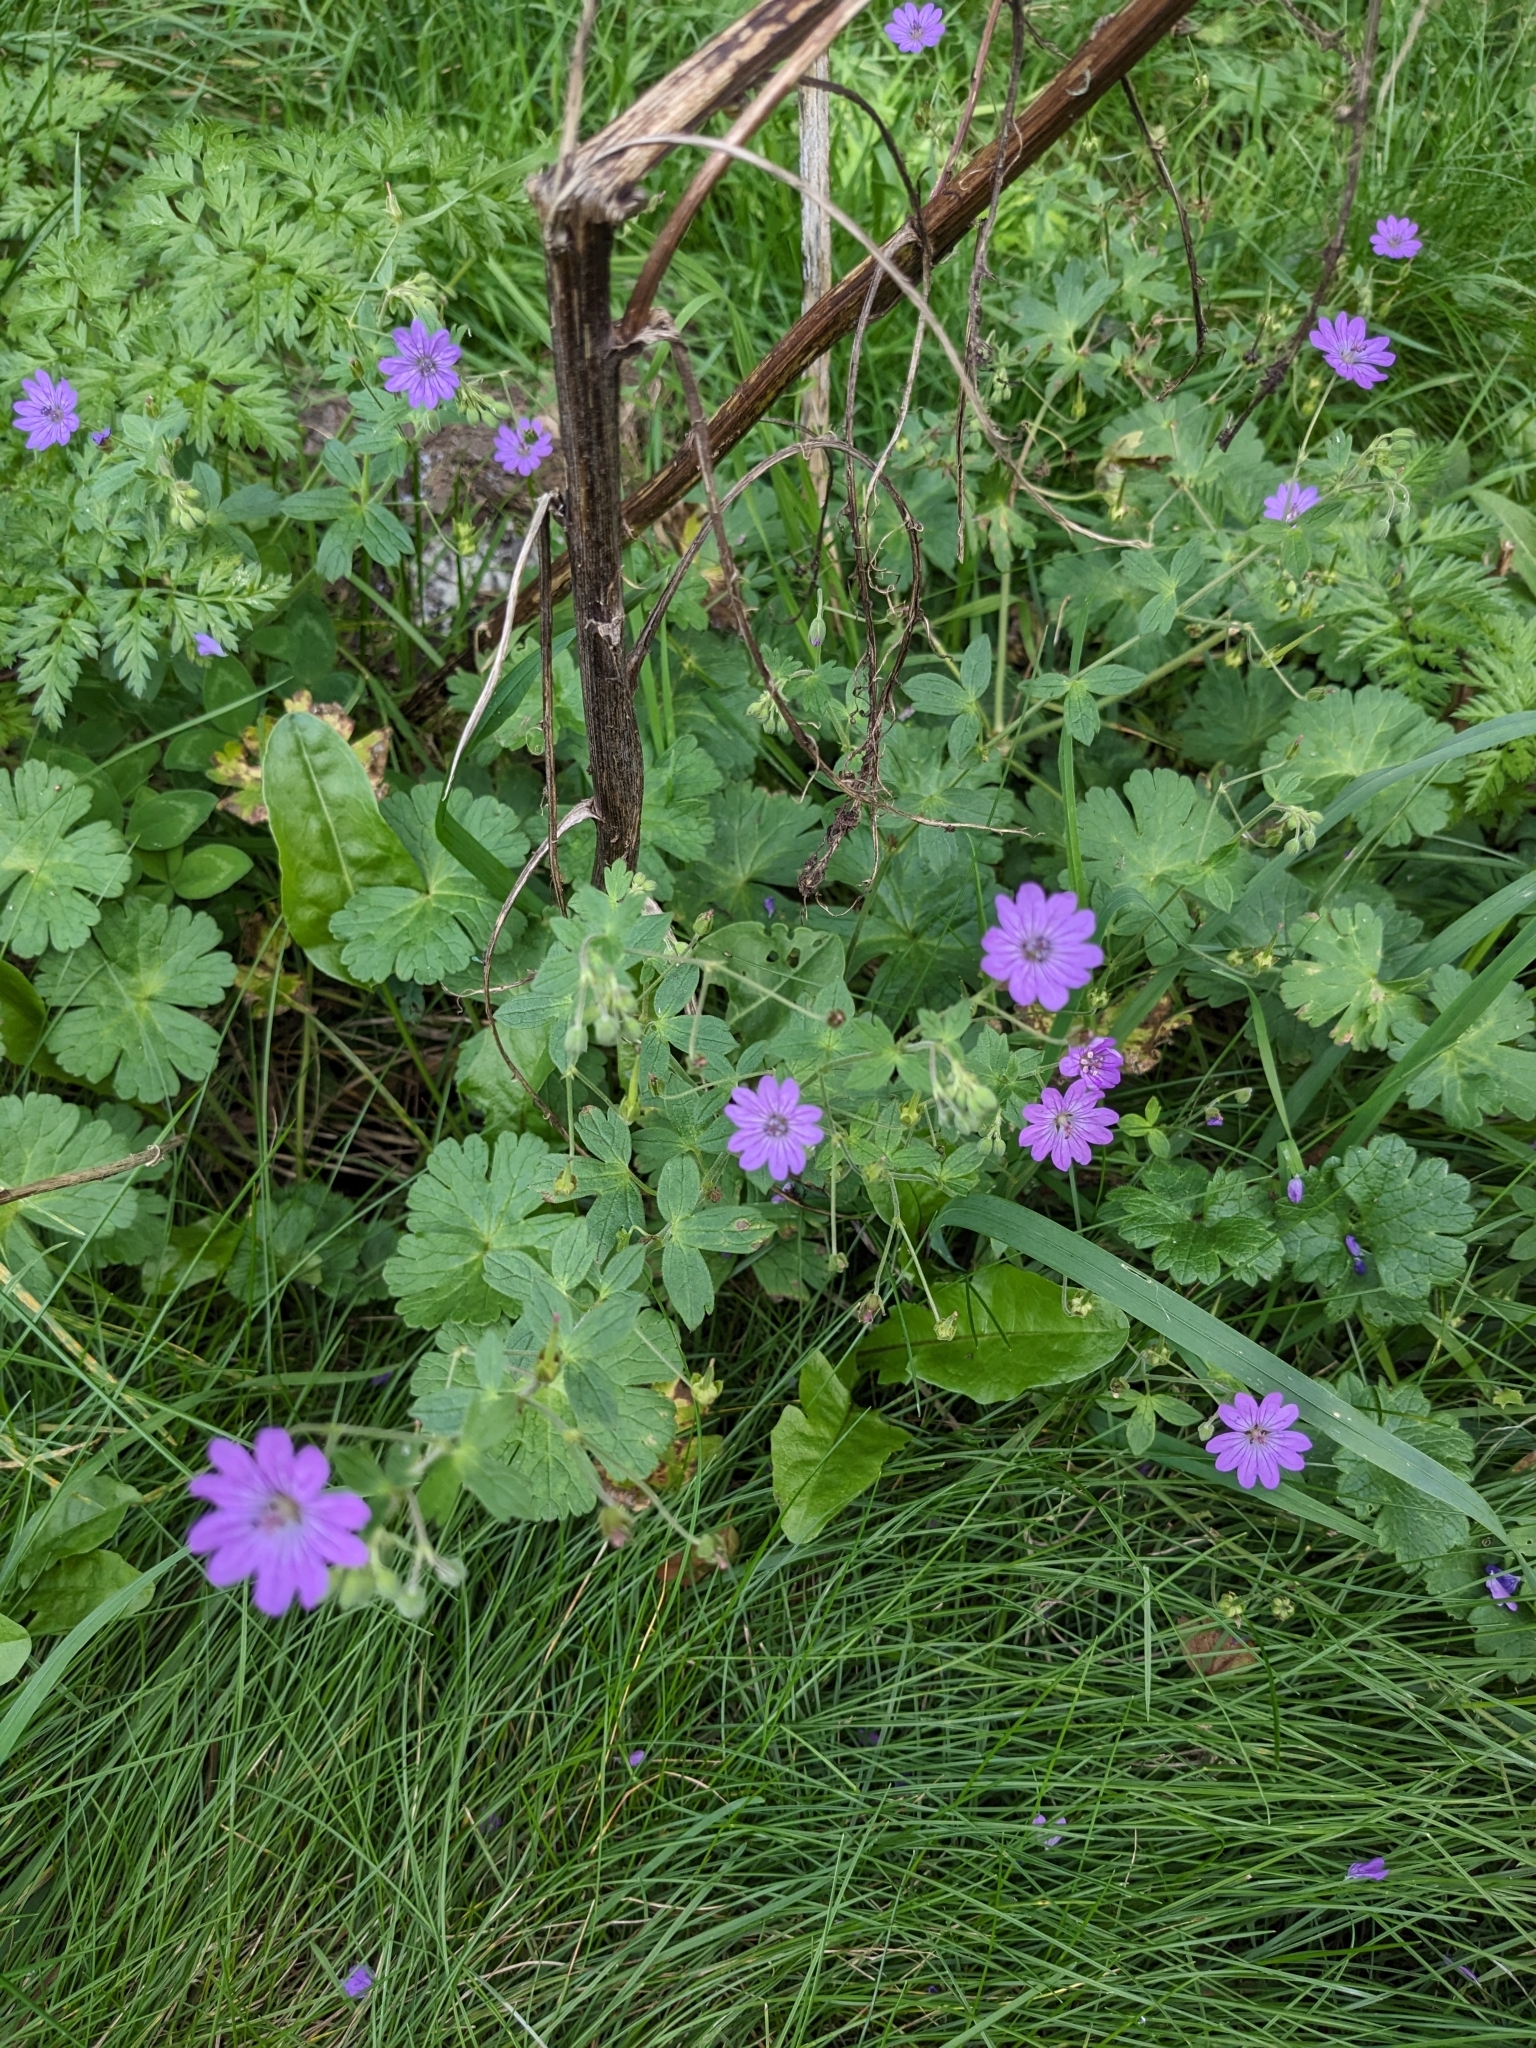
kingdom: Plantae
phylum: Tracheophyta
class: Magnoliopsida
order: Geraniales
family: Geraniaceae
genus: Geranium
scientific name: Geranium pyrenaicum
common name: Hedgerow crane's-bill
